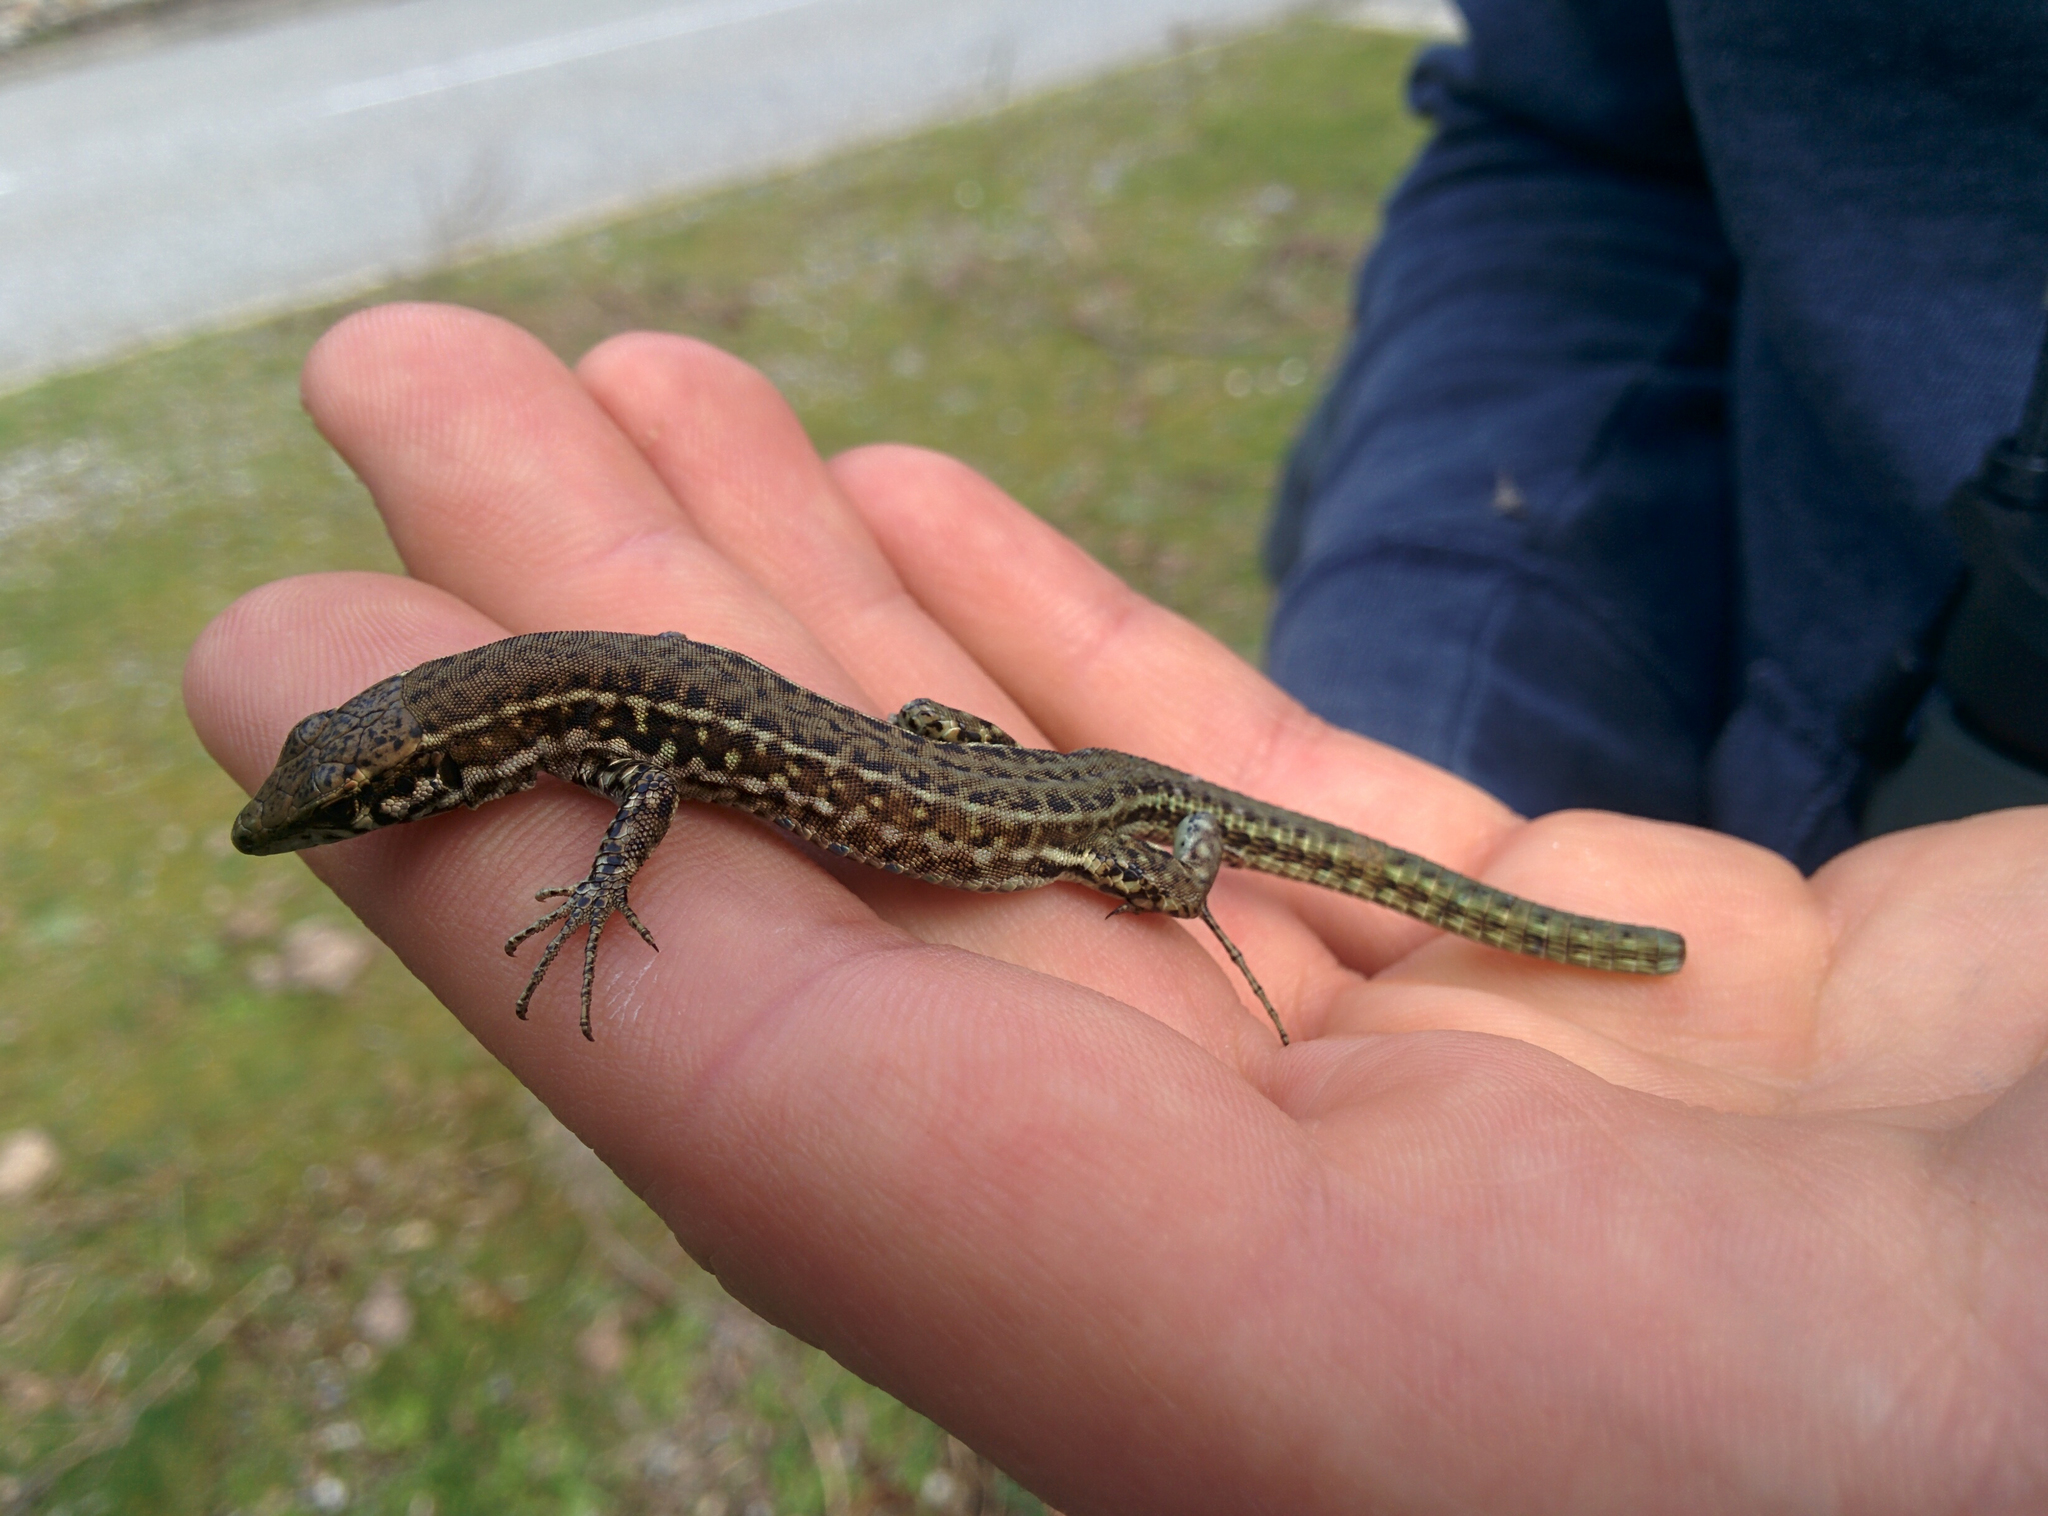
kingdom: Animalia
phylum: Chordata
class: Squamata
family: Lacertidae
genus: Podarcis
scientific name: Podarcis tiliguerta
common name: Tyrrhenian wall lizard
